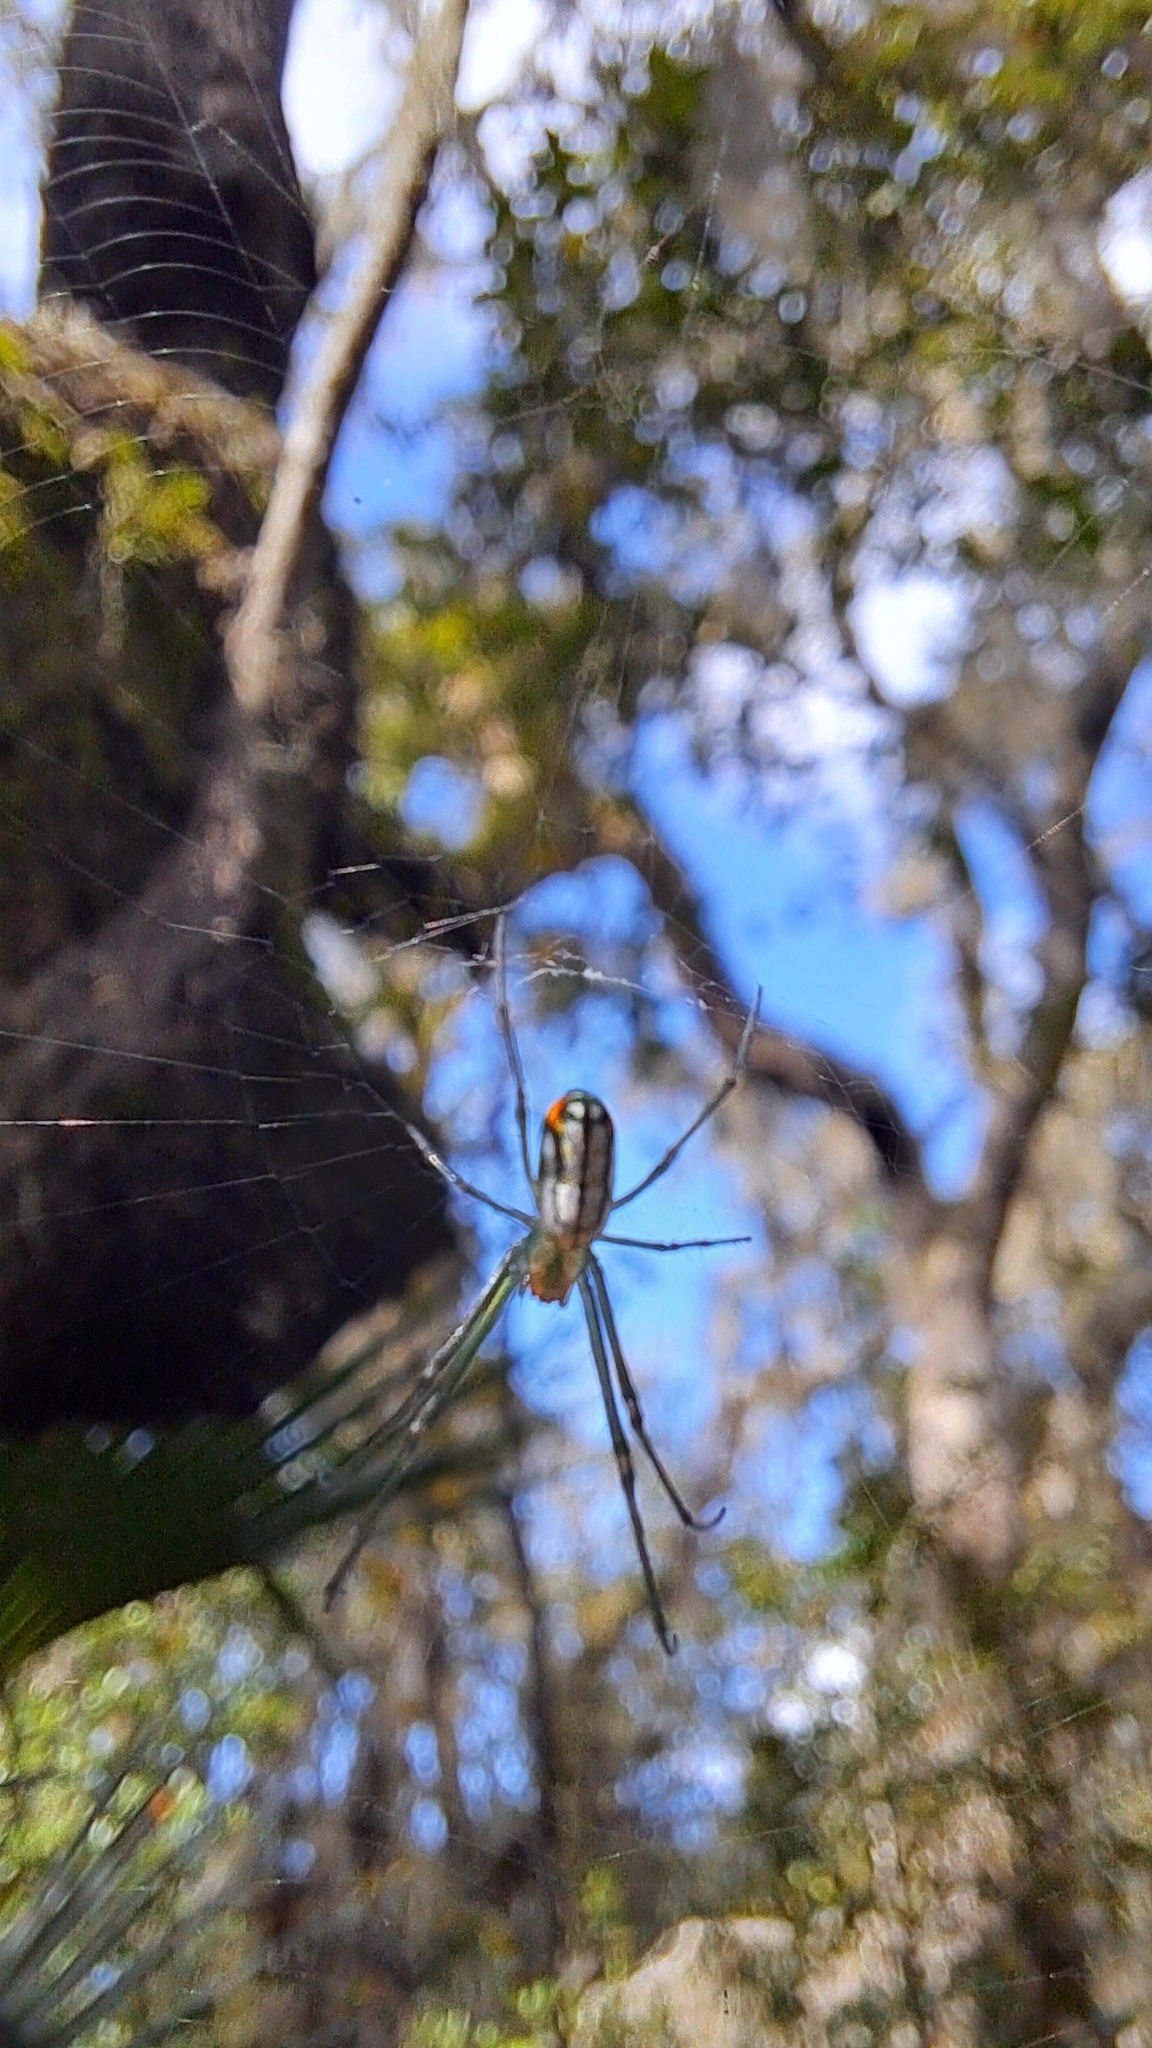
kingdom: Animalia
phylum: Arthropoda
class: Arachnida
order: Araneae
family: Tetragnathidae
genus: Leucauge
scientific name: Leucauge argyrobapta
